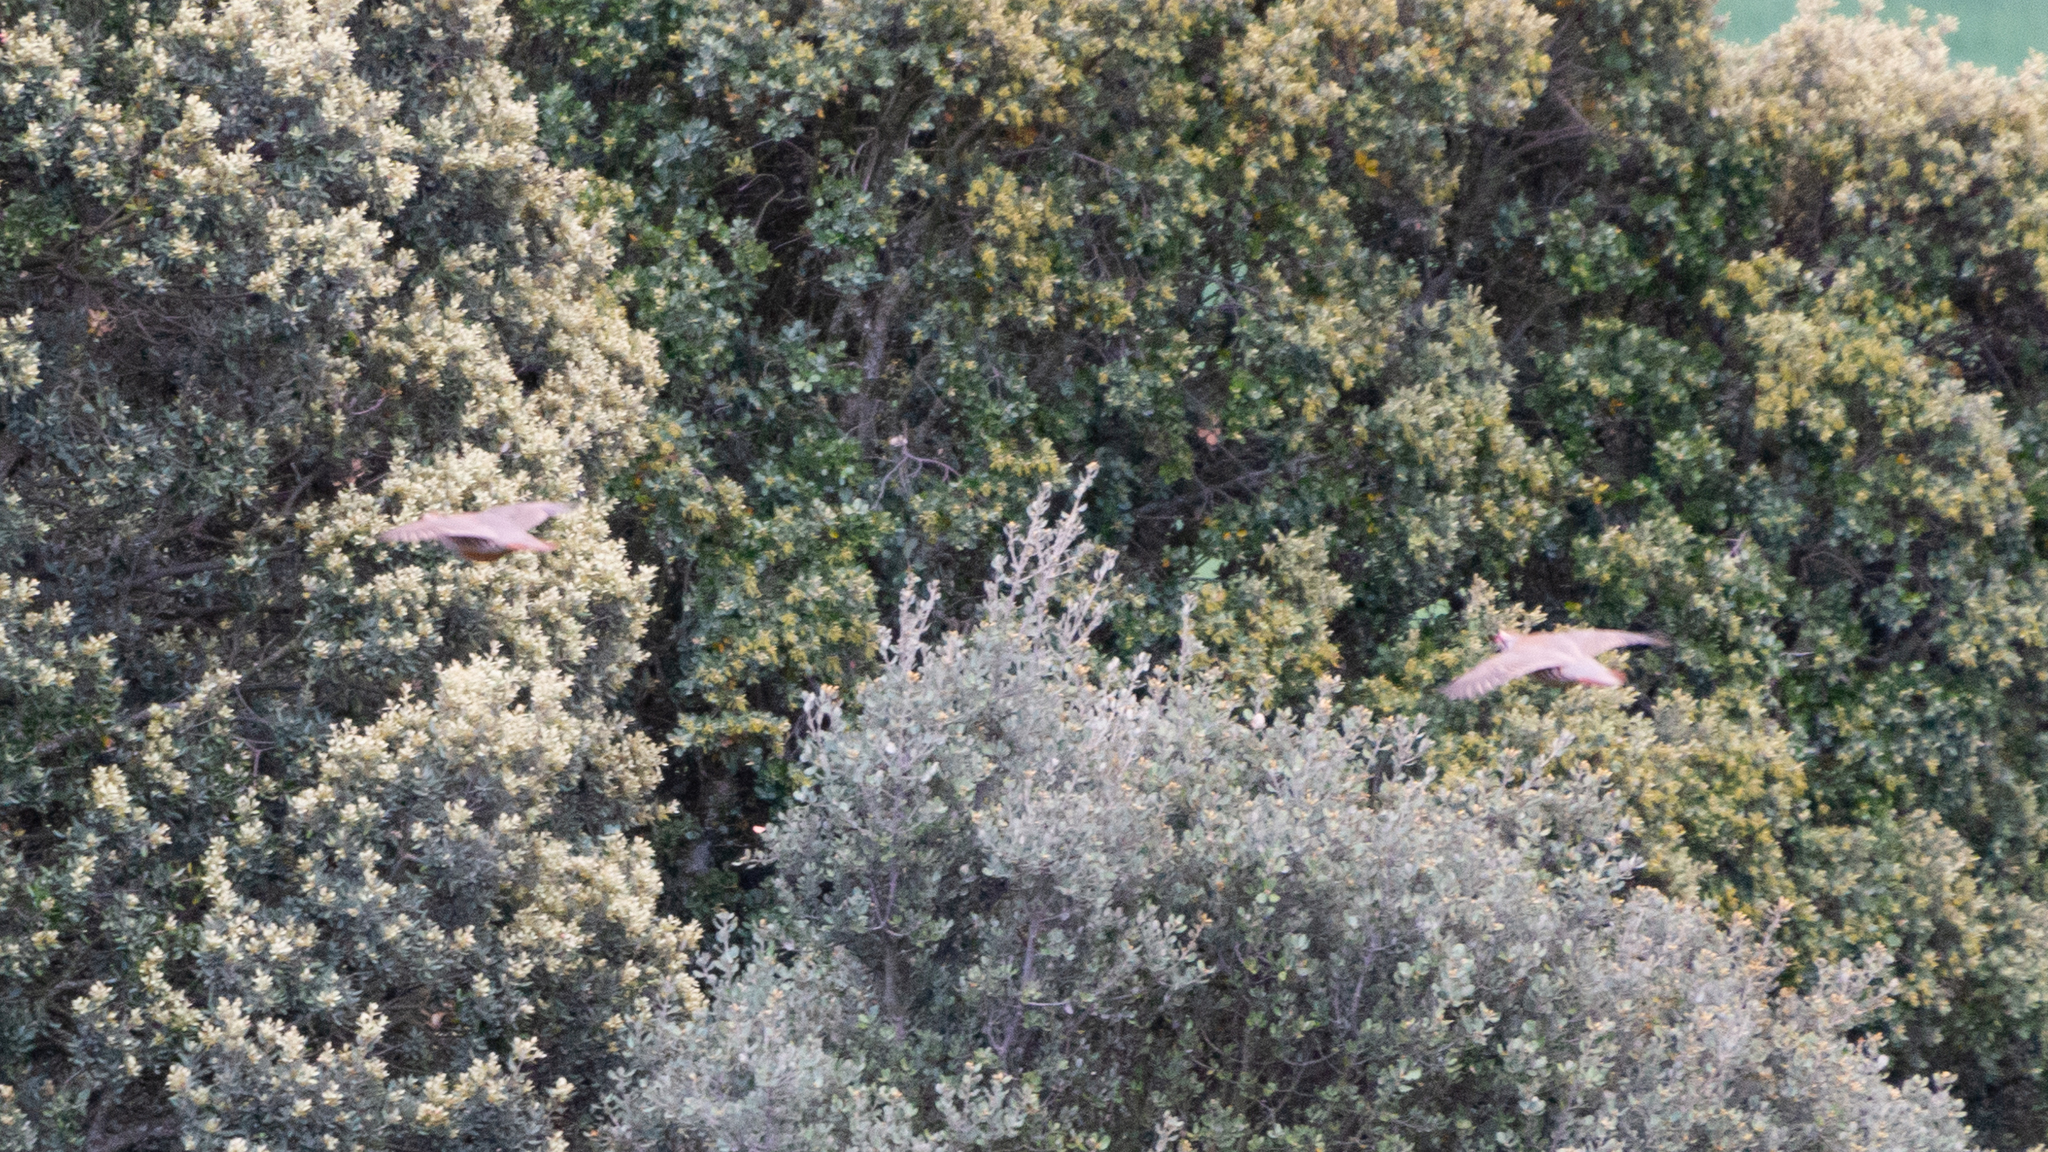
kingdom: Animalia
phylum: Chordata
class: Aves
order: Galliformes
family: Phasianidae
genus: Alectoris
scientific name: Alectoris rufa
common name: Red-legged partridge
